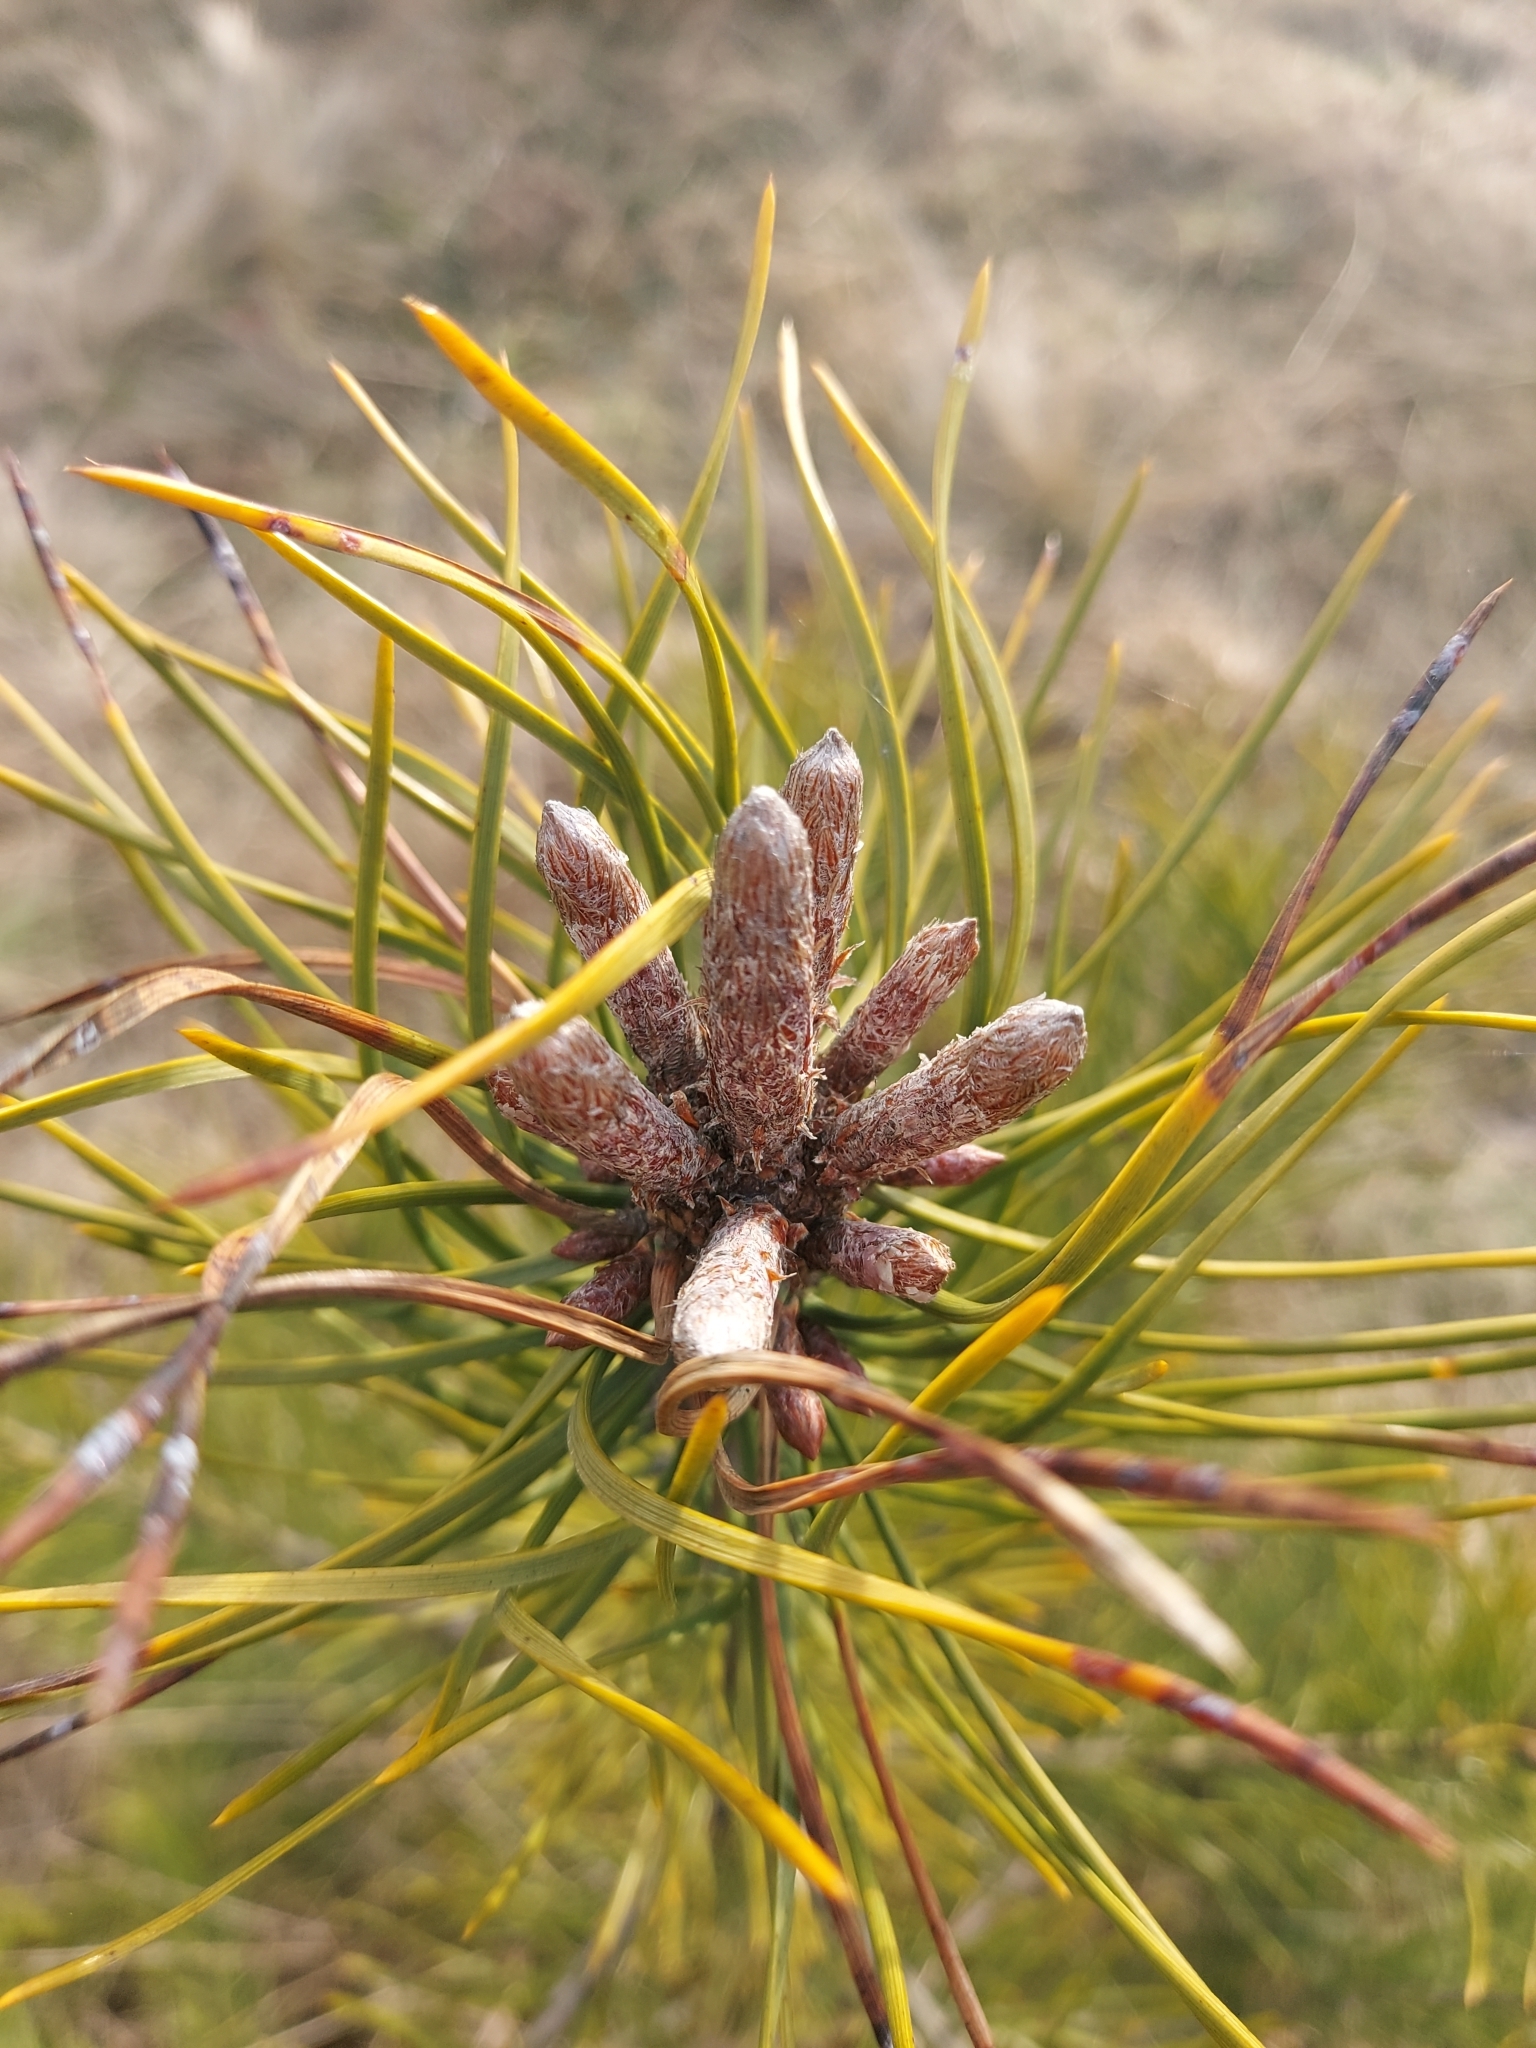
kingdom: Plantae
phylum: Tracheophyta
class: Pinopsida
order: Pinales
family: Pinaceae
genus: Pinus
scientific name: Pinus sylvestris
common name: Scots pine
